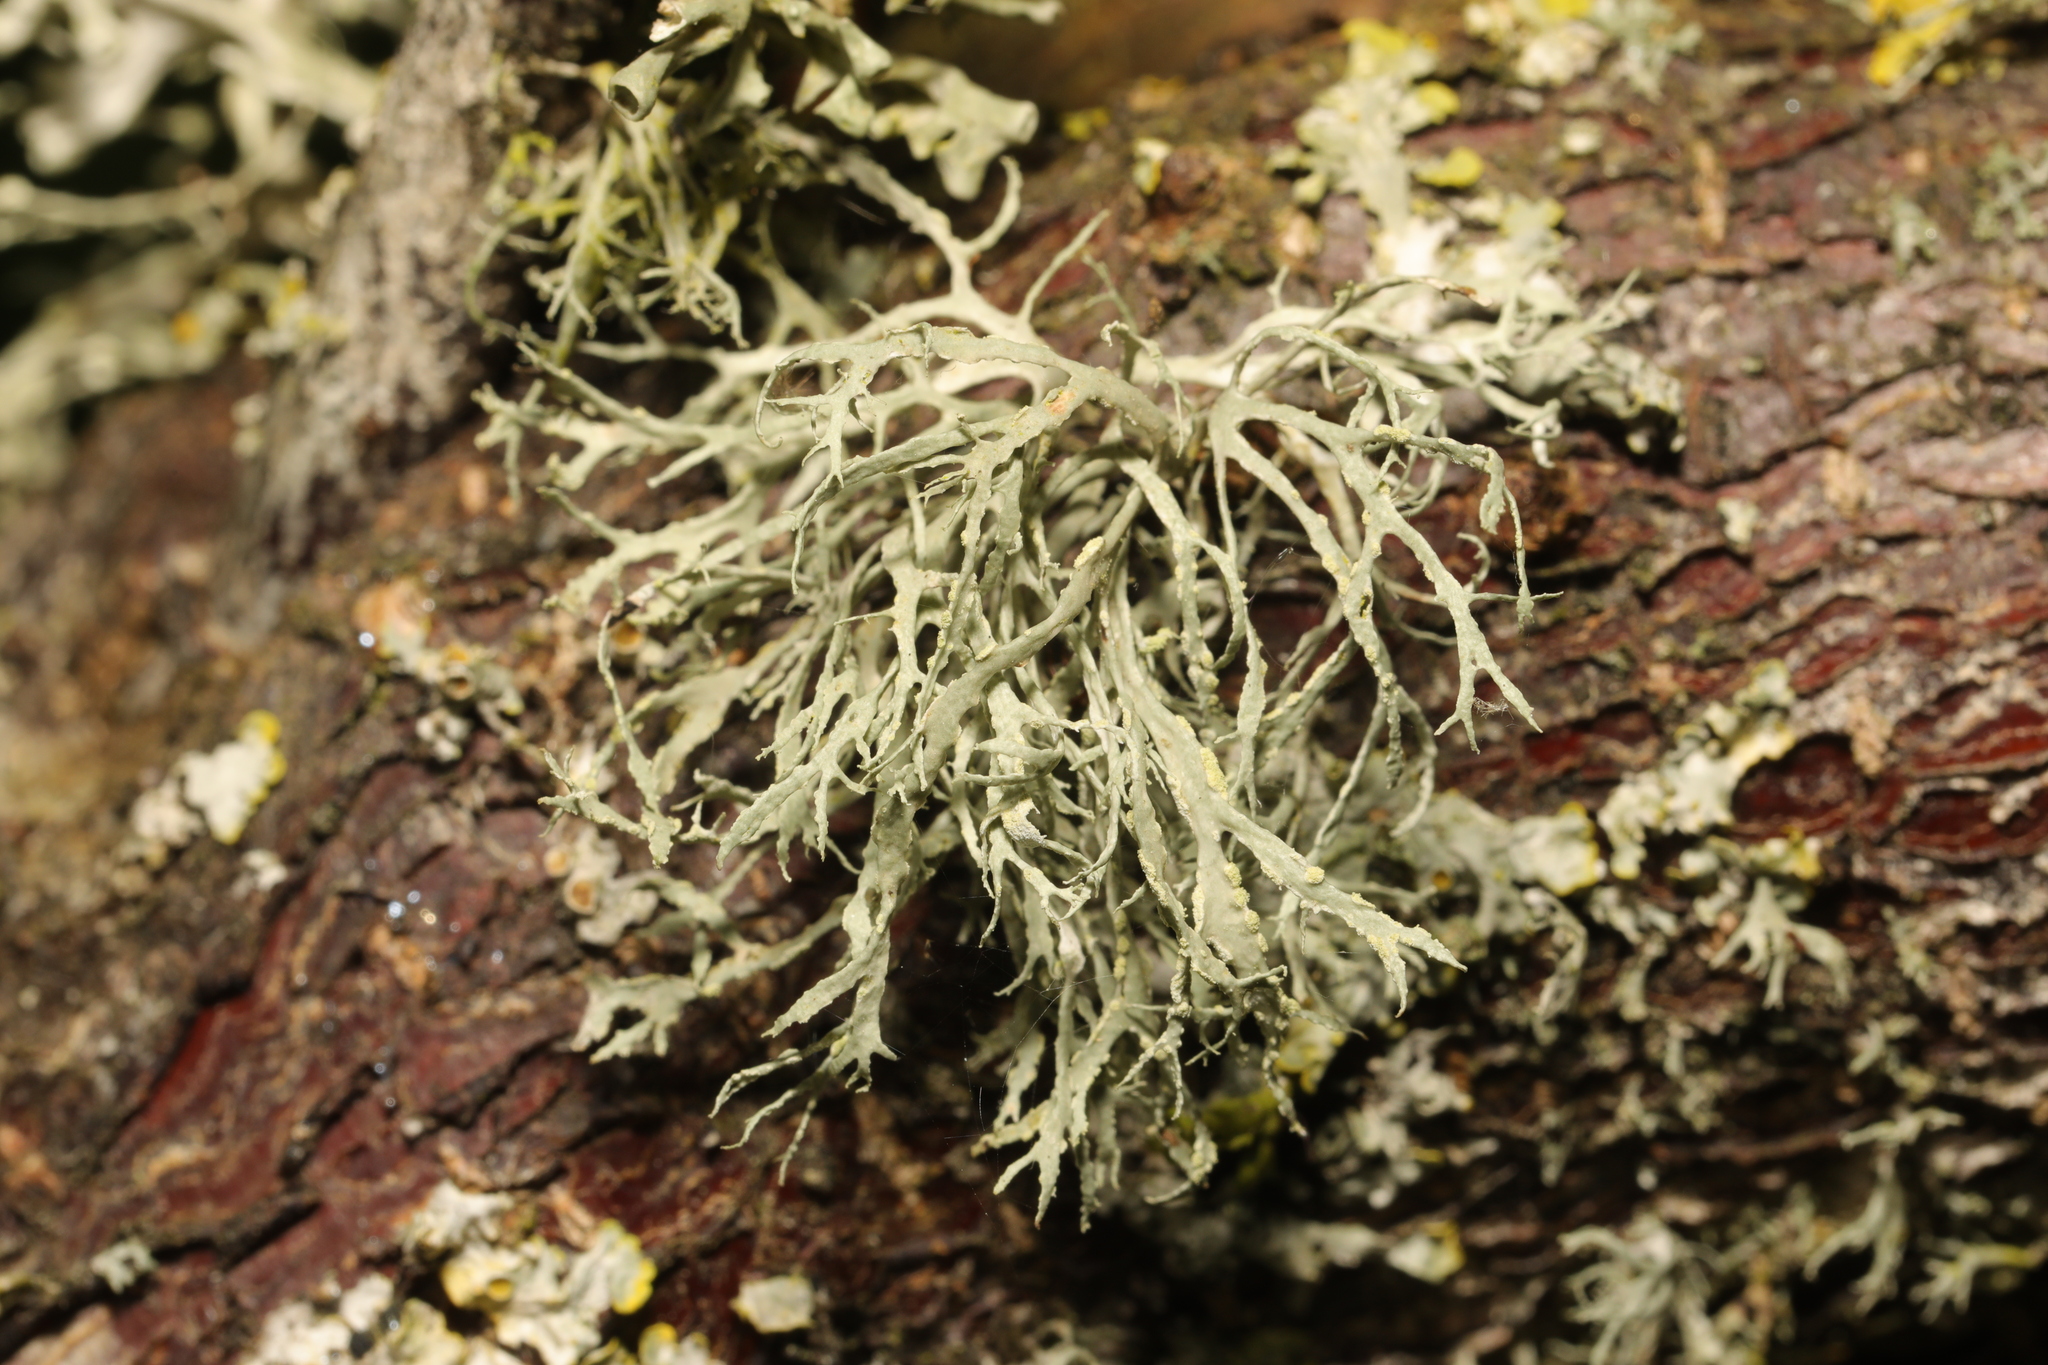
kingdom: Fungi
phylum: Ascomycota
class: Lecanoromycetes
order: Lecanorales
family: Ramalinaceae
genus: Ramalina
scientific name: Ramalina farinacea
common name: Farinose cartilage lichen
